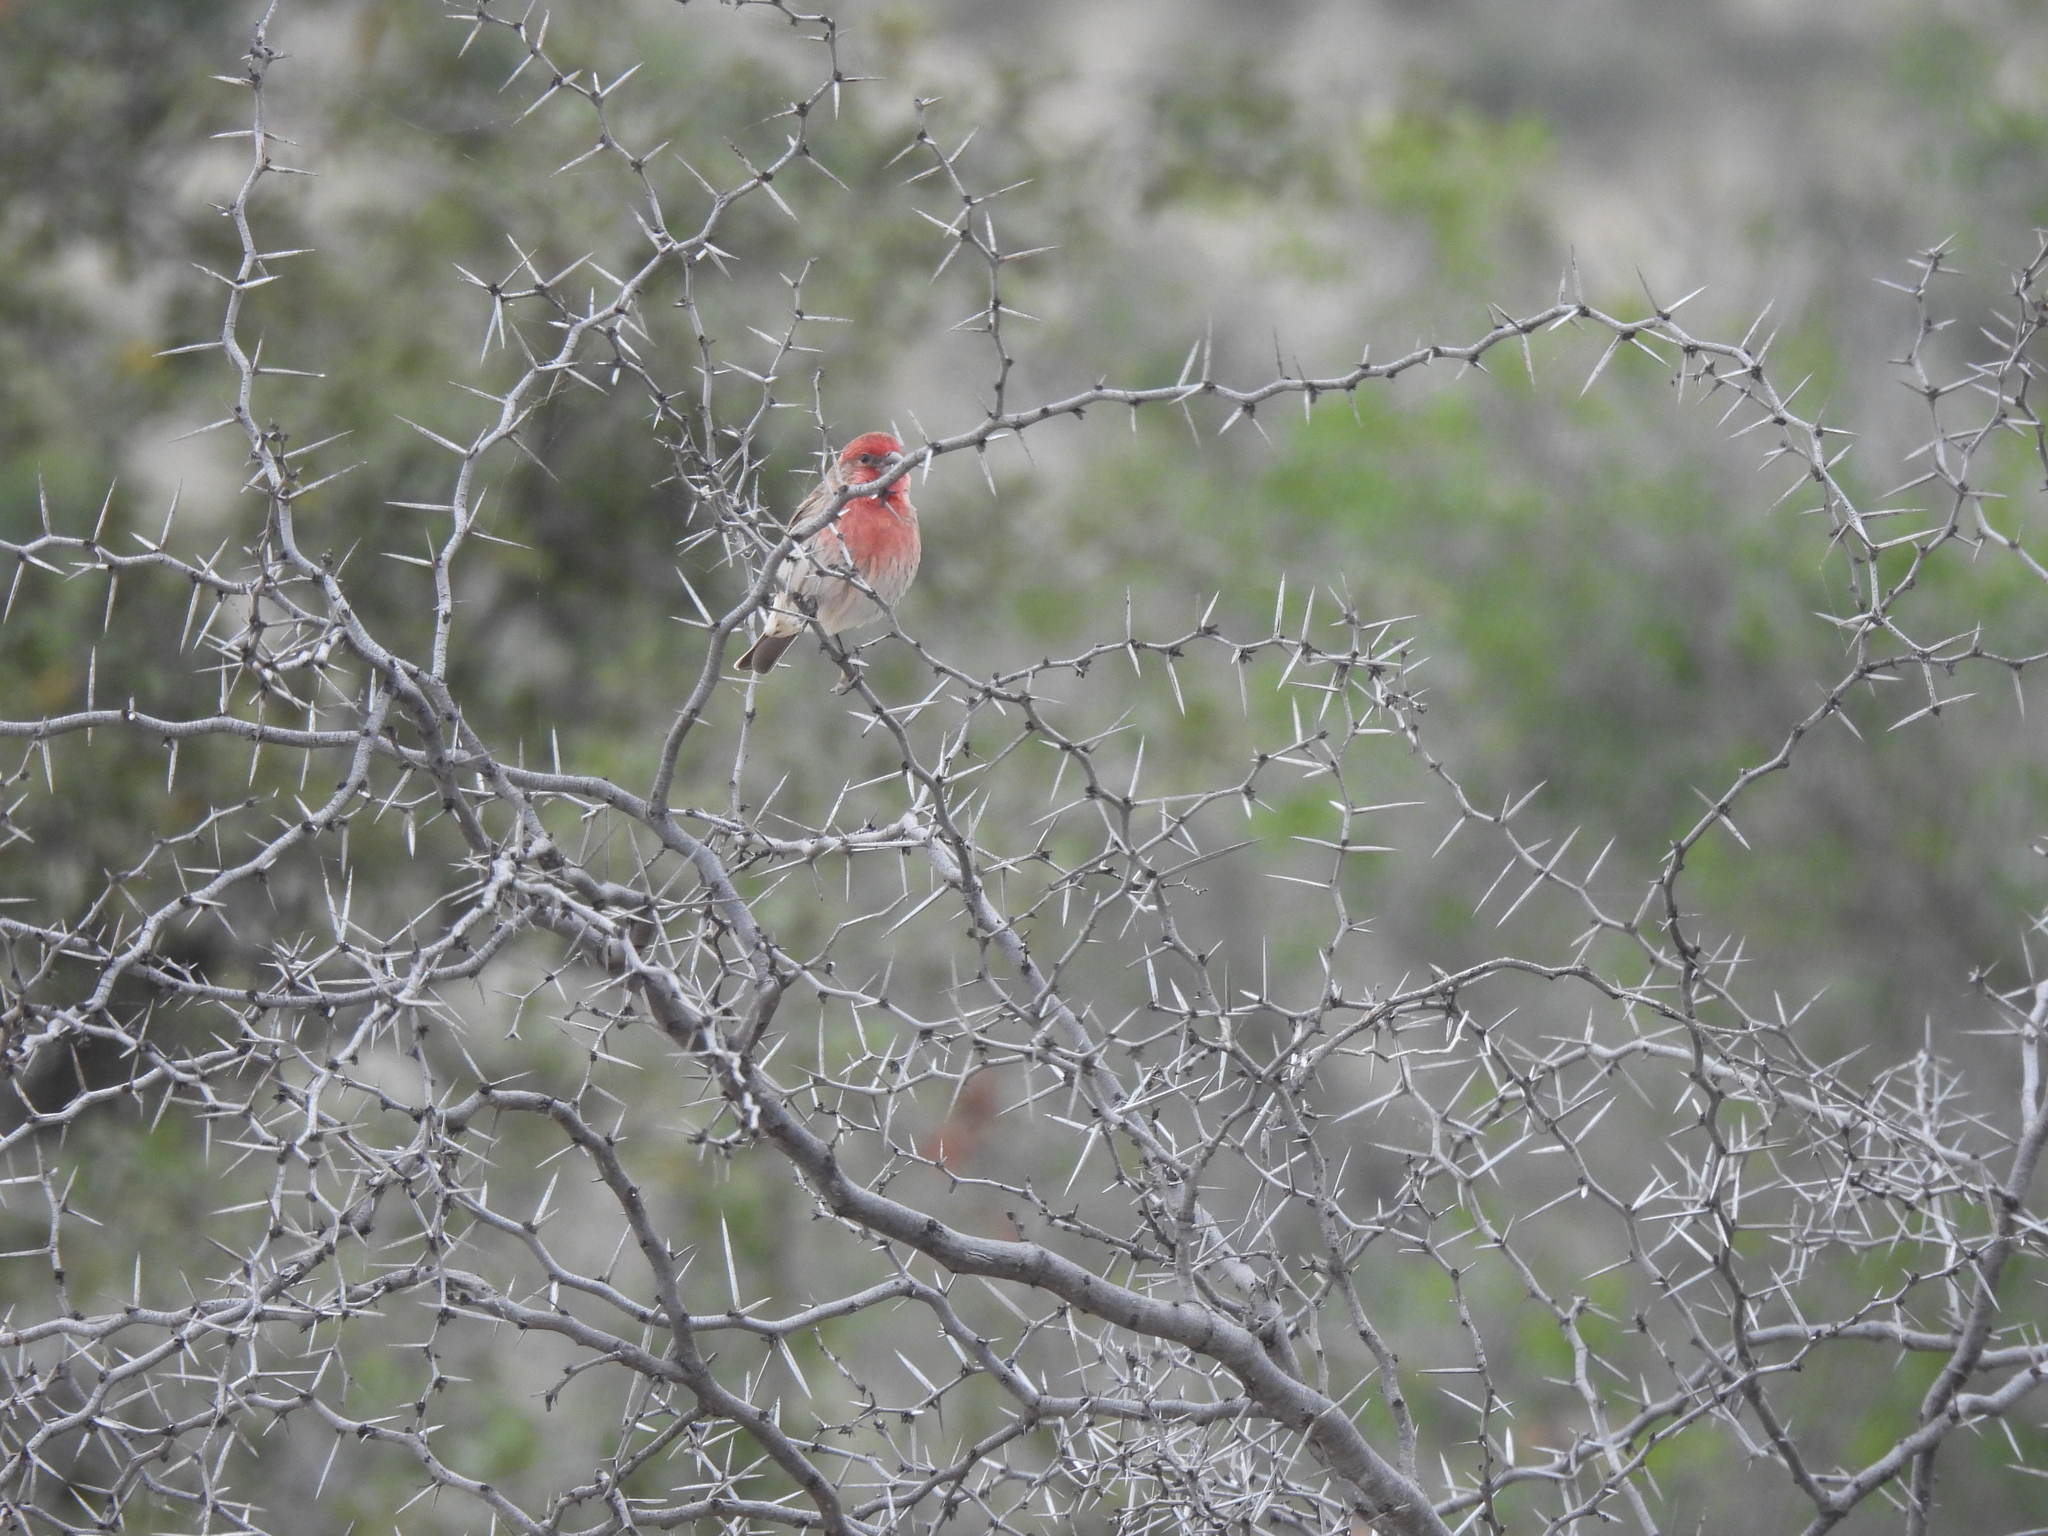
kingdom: Animalia
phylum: Chordata
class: Aves
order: Passeriformes
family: Fringillidae
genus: Haemorhous
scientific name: Haemorhous mexicanus
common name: House finch
